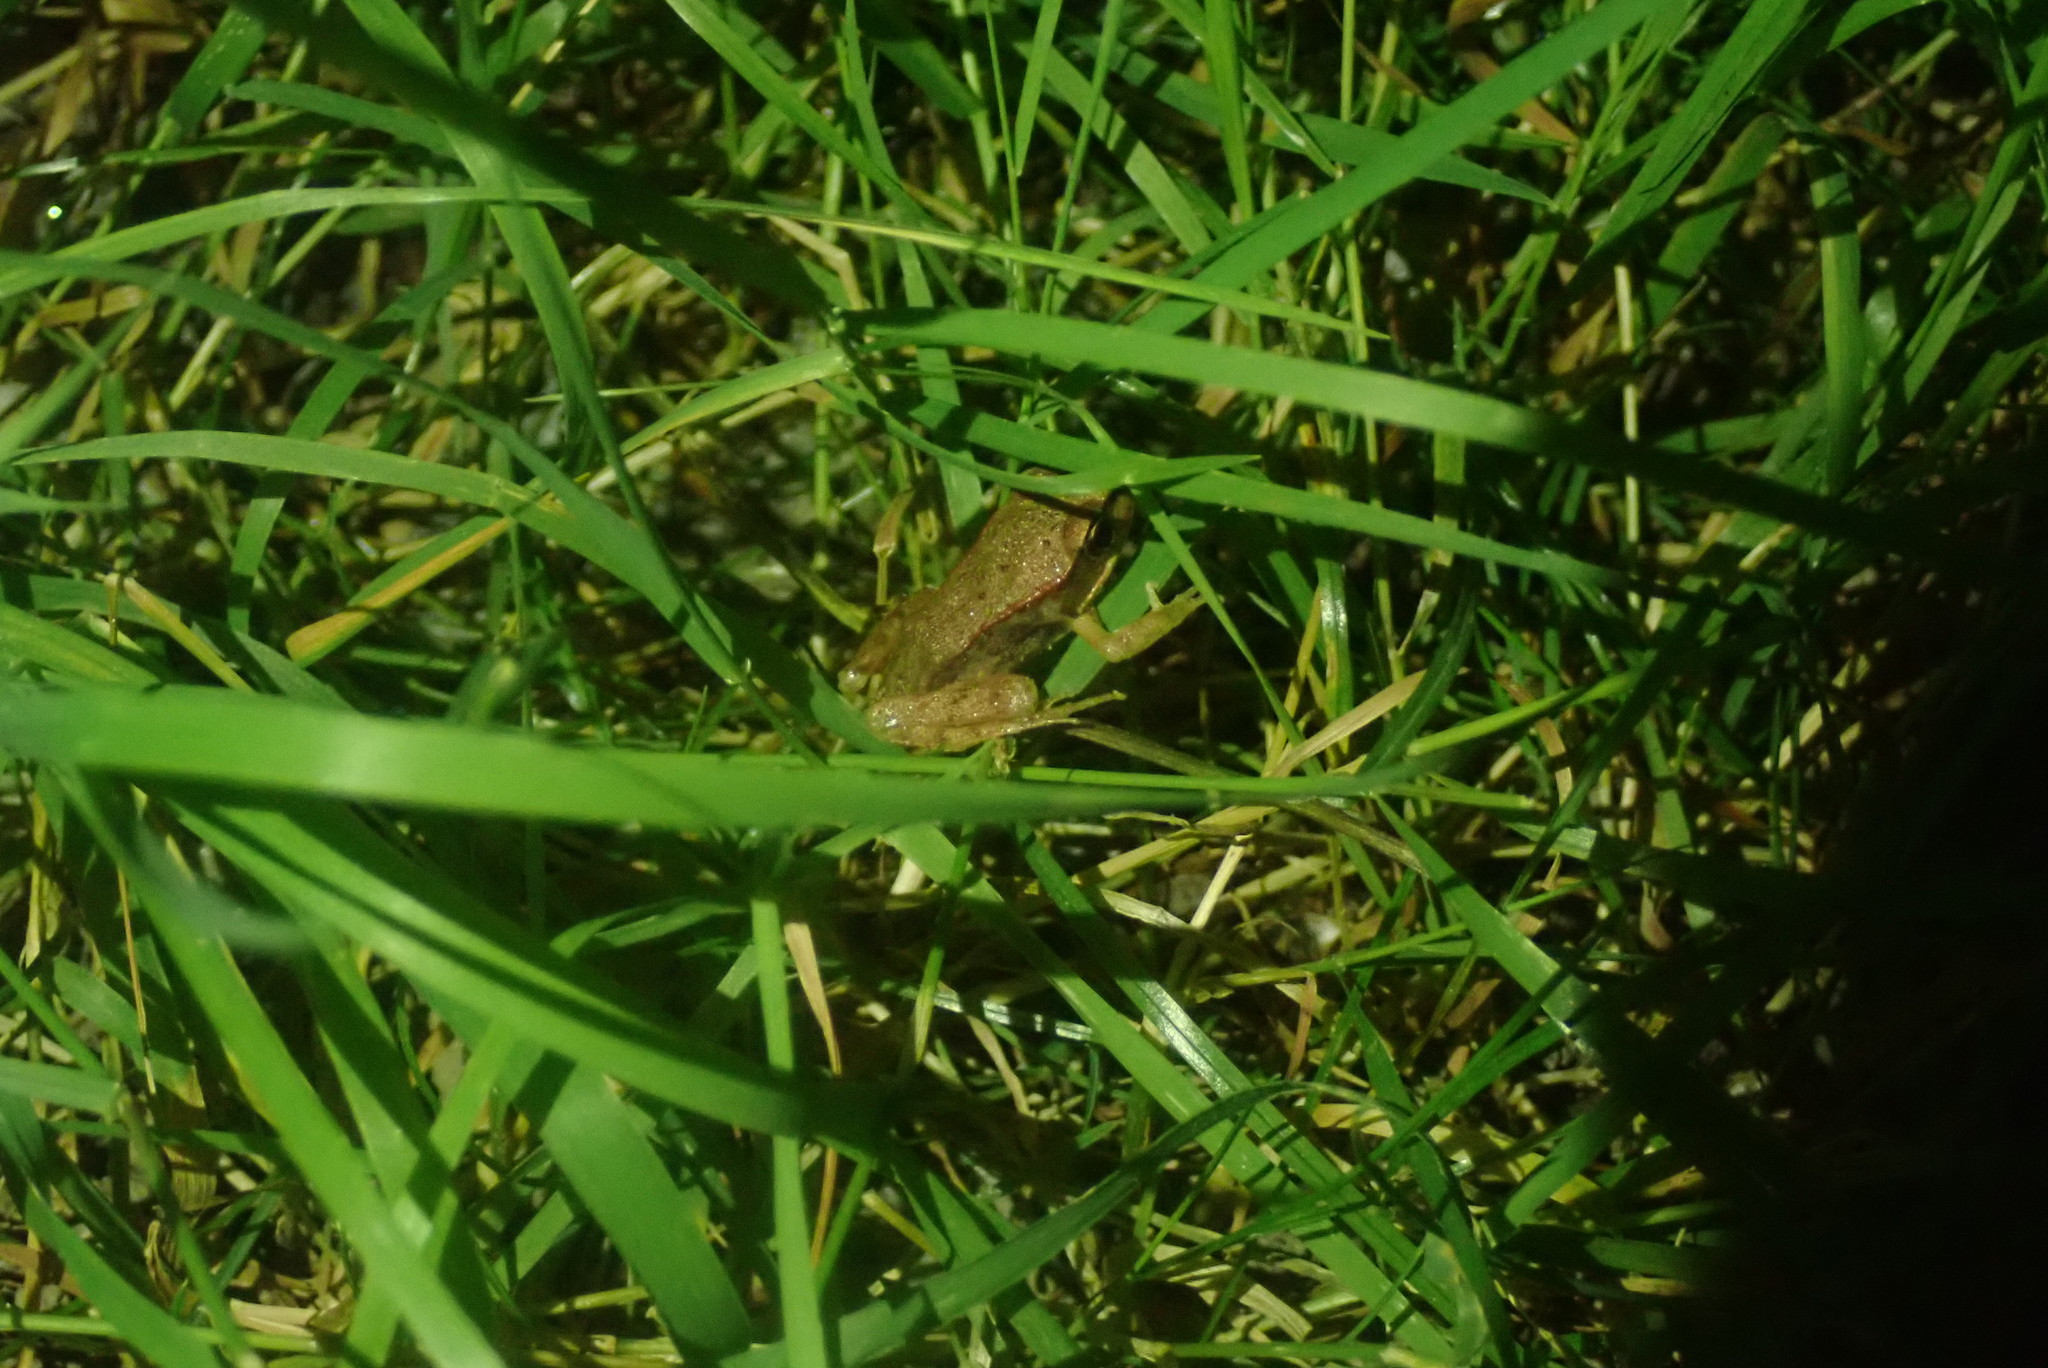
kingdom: Animalia
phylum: Chordata
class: Amphibia
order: Anura
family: Ranidae
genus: Rana
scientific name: Rana aurora
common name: Red-legged frog
